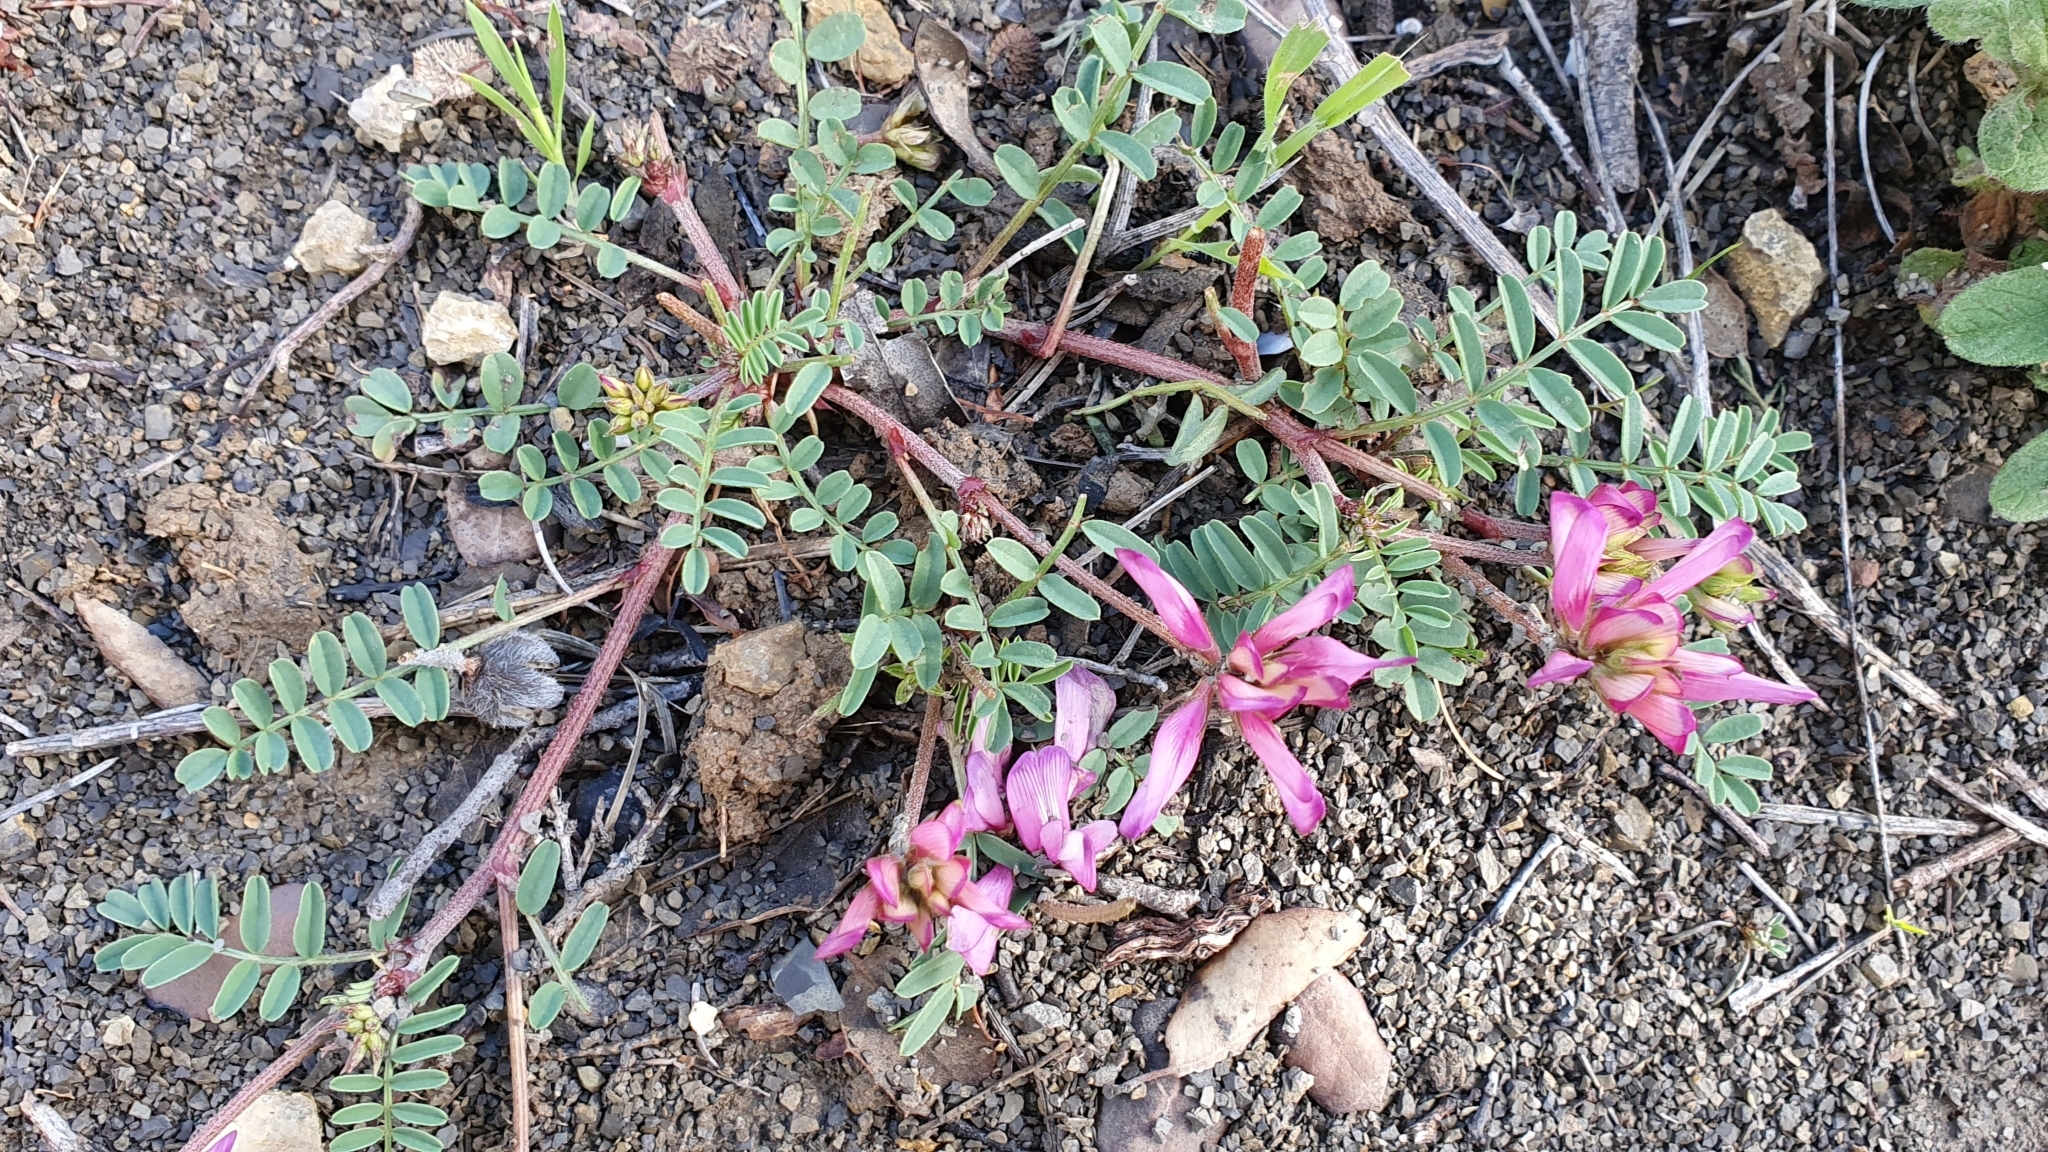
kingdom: Plantae
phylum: Tracheophyta
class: Magnoliopsida
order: Fabales
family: Fabaceae
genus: Sulla
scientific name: Sulla glomerata
